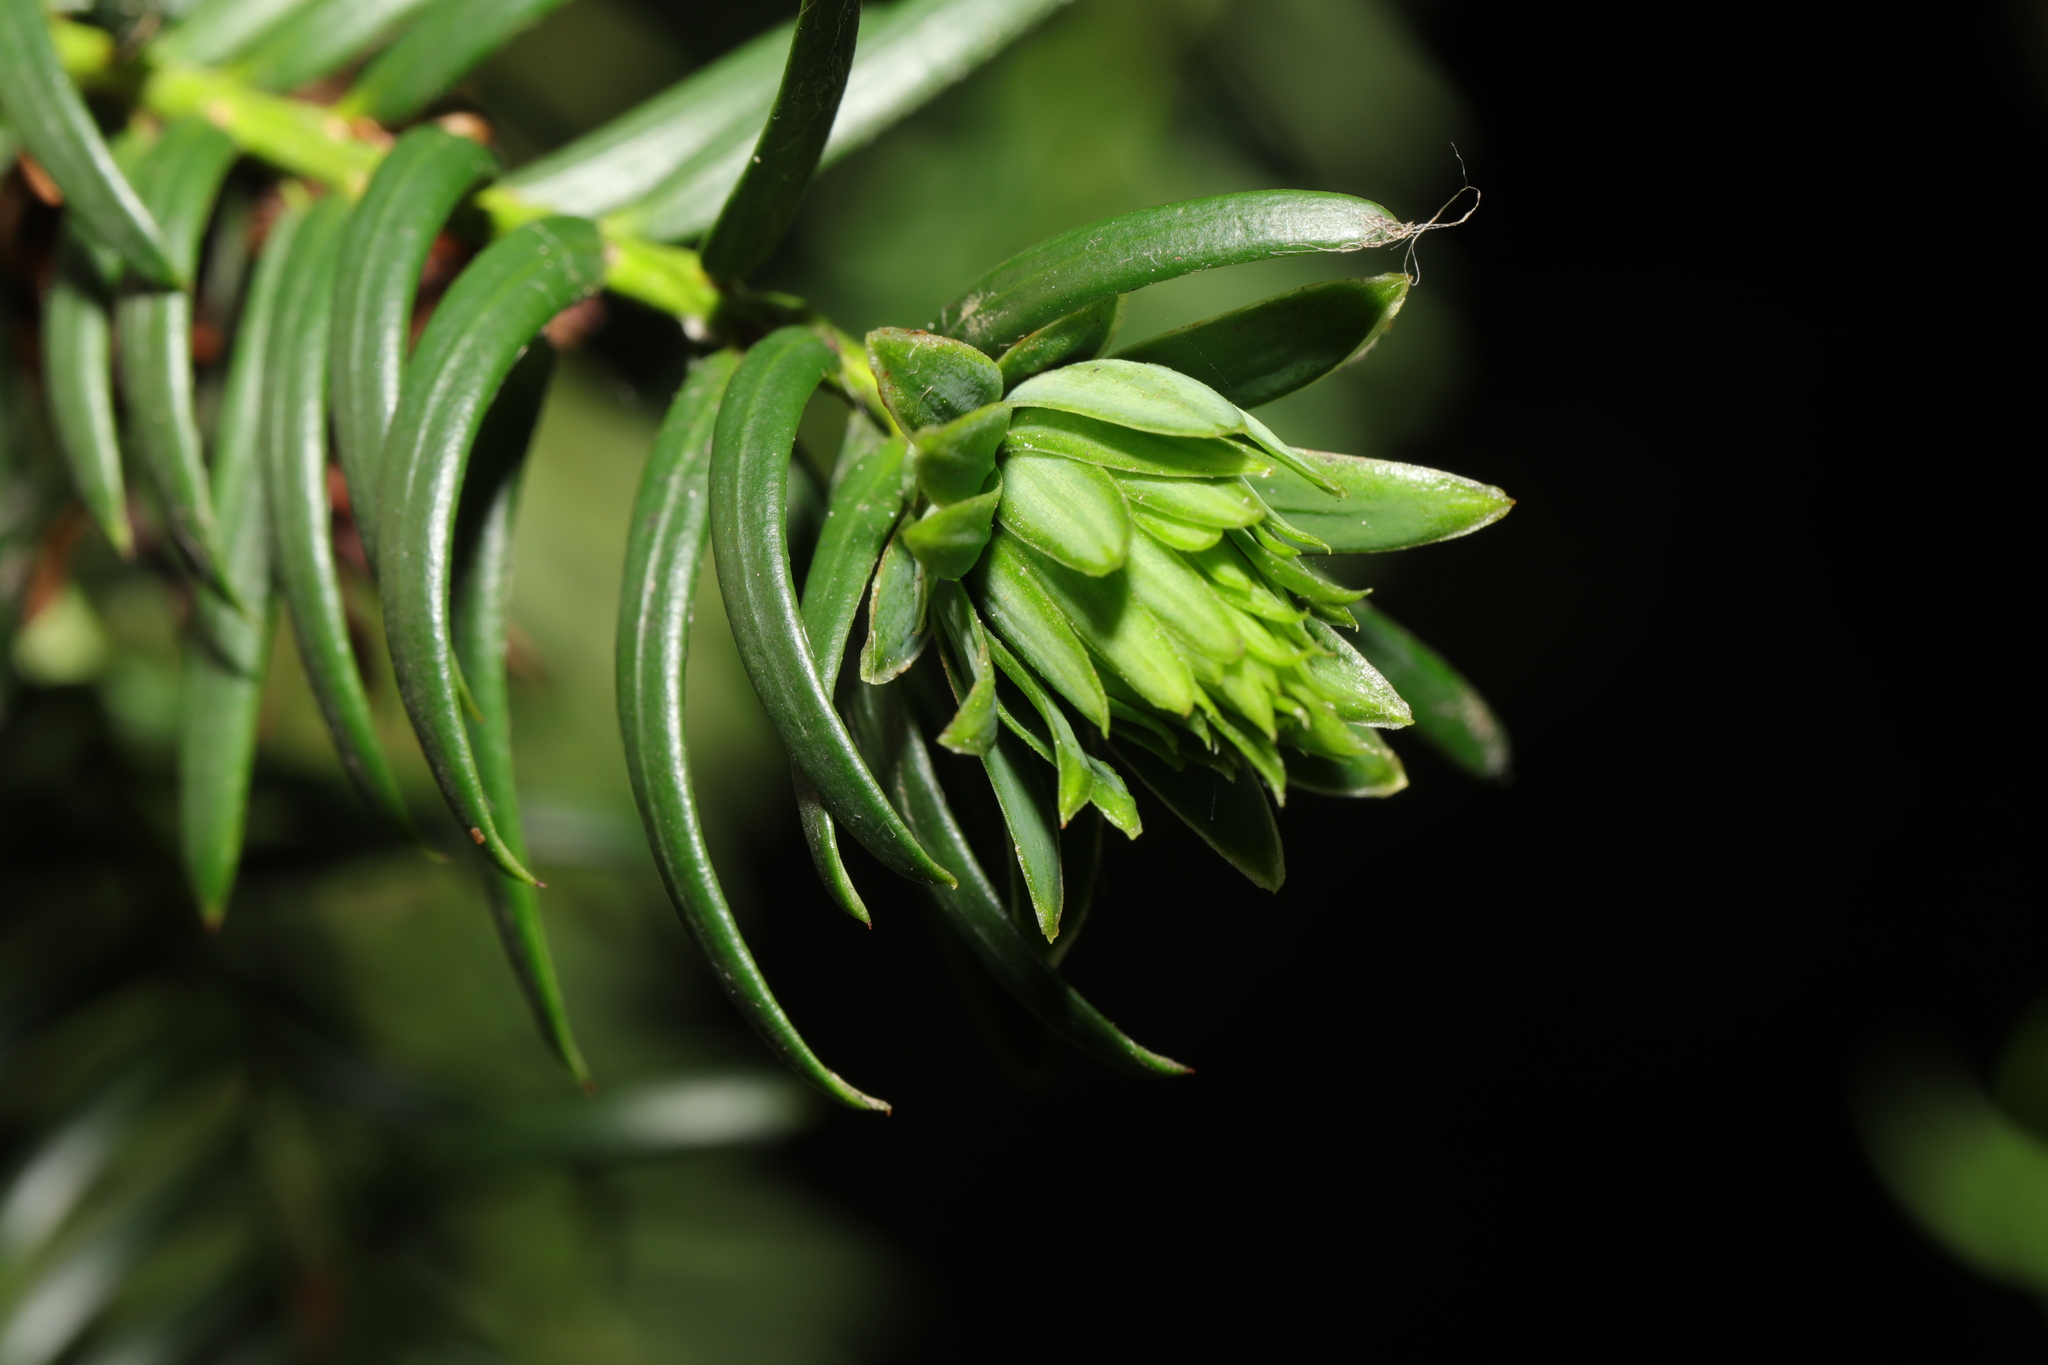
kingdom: Animalia
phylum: Arthropoda
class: Insecta
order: Diptera
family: Cecidomyiidae
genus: Taxomyia
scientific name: Taxomyia taxi
